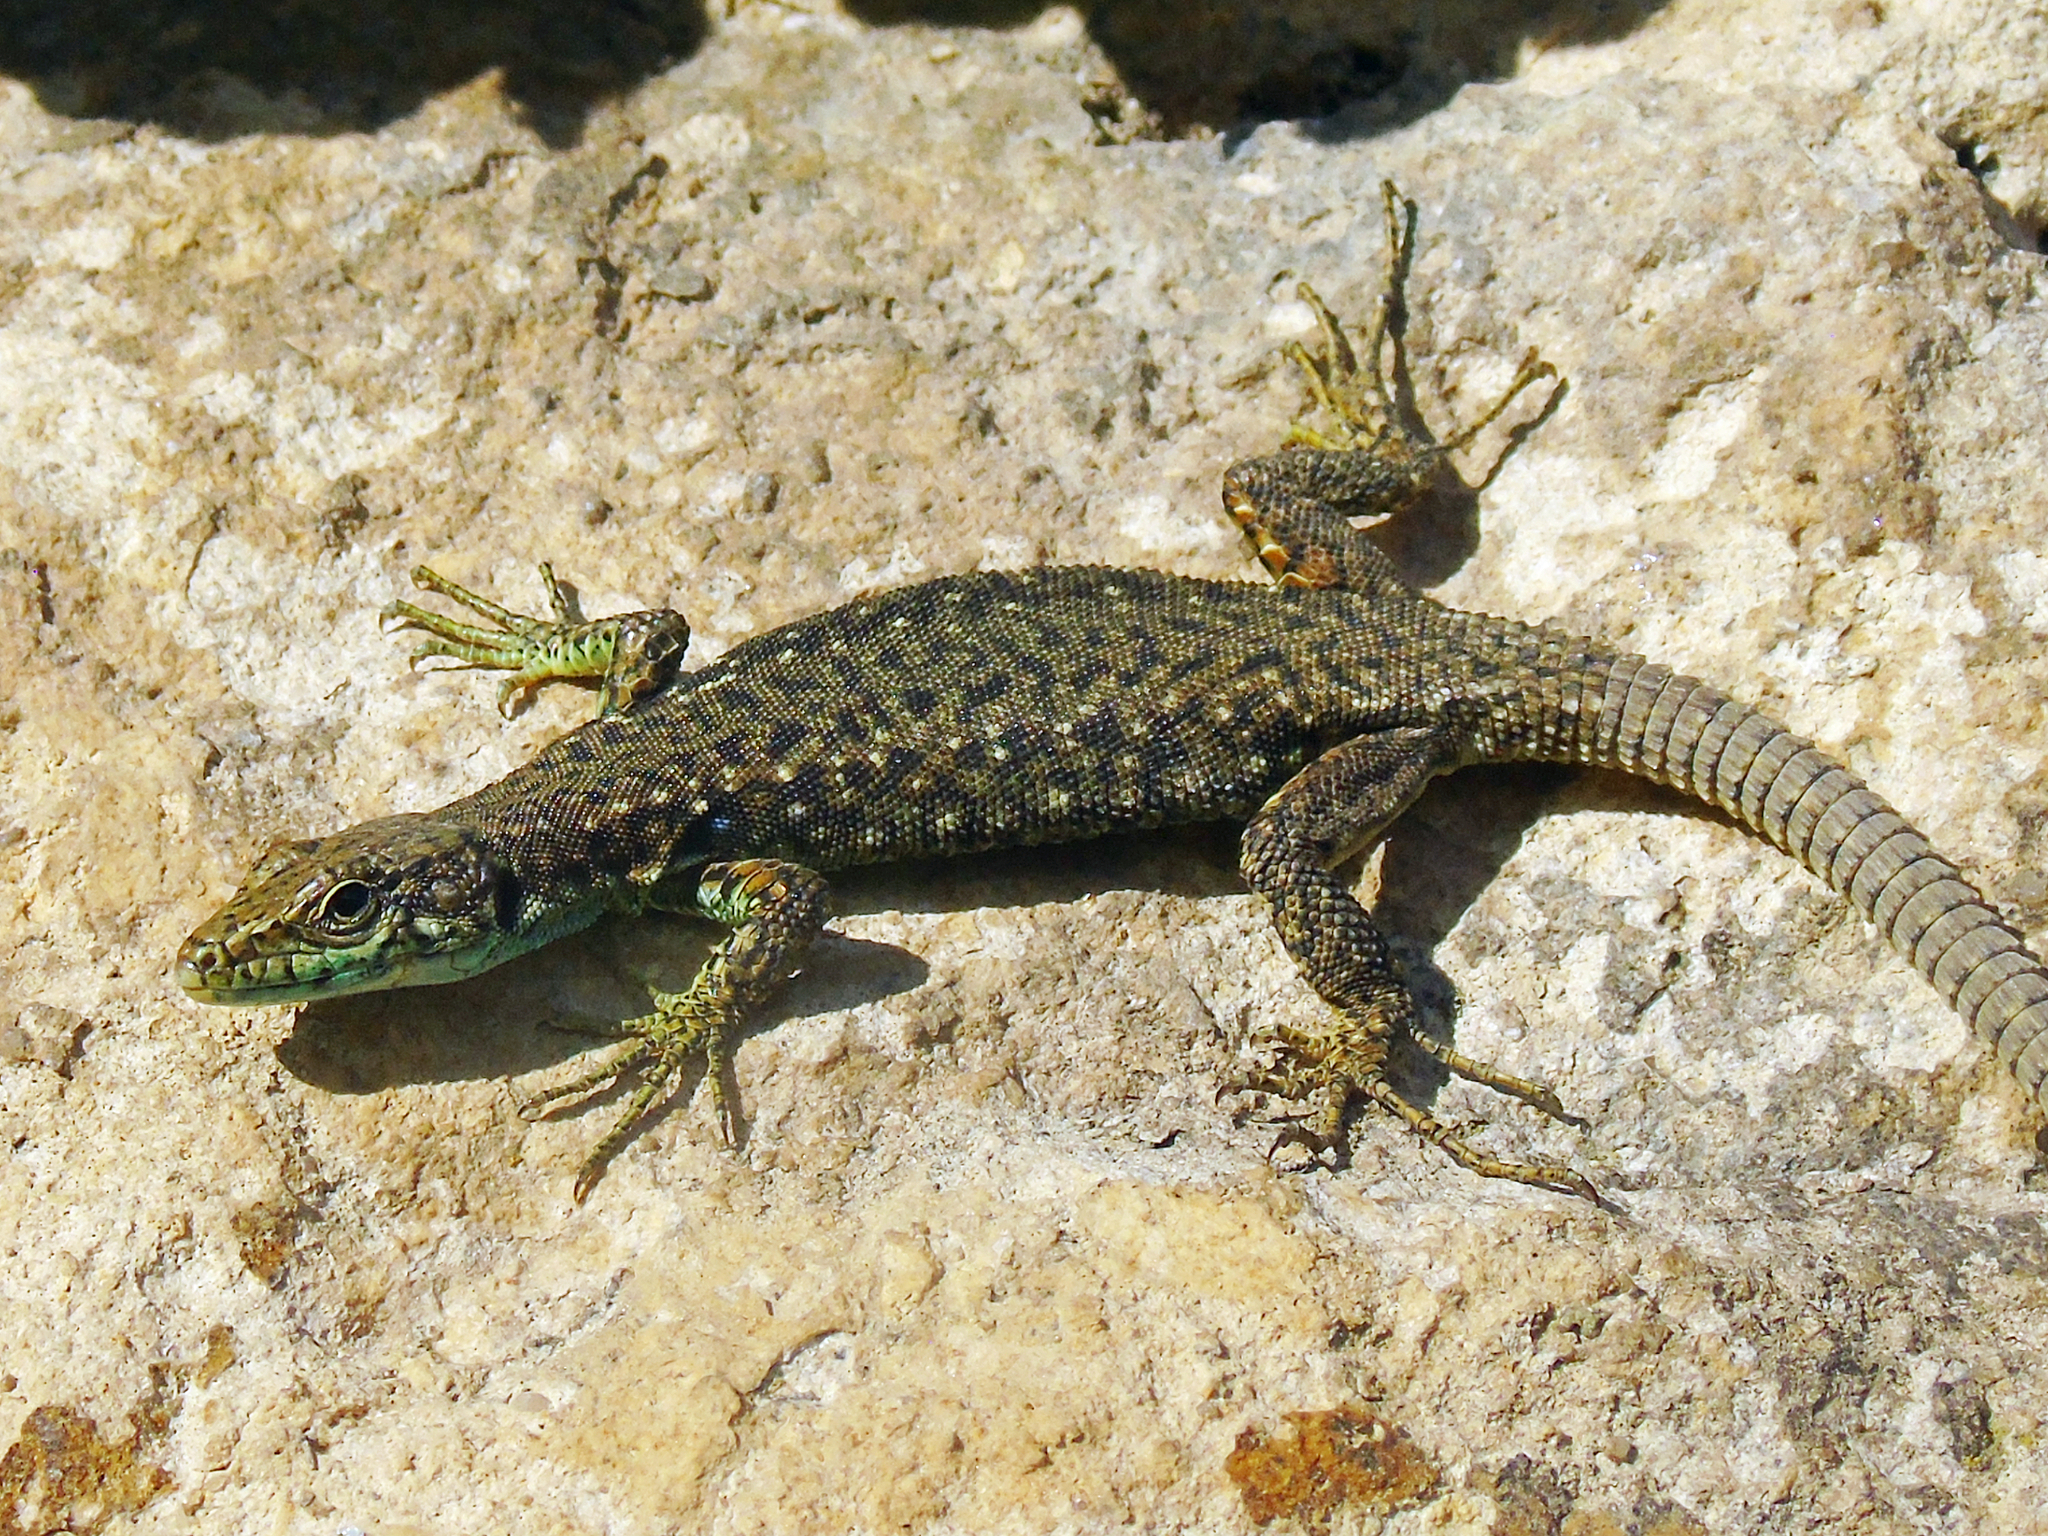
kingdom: Animalia
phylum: Chordata
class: Squamata
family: Lacertidae
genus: Darevskia
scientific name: Darevskia rudis
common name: Spiny-tailed lizard
